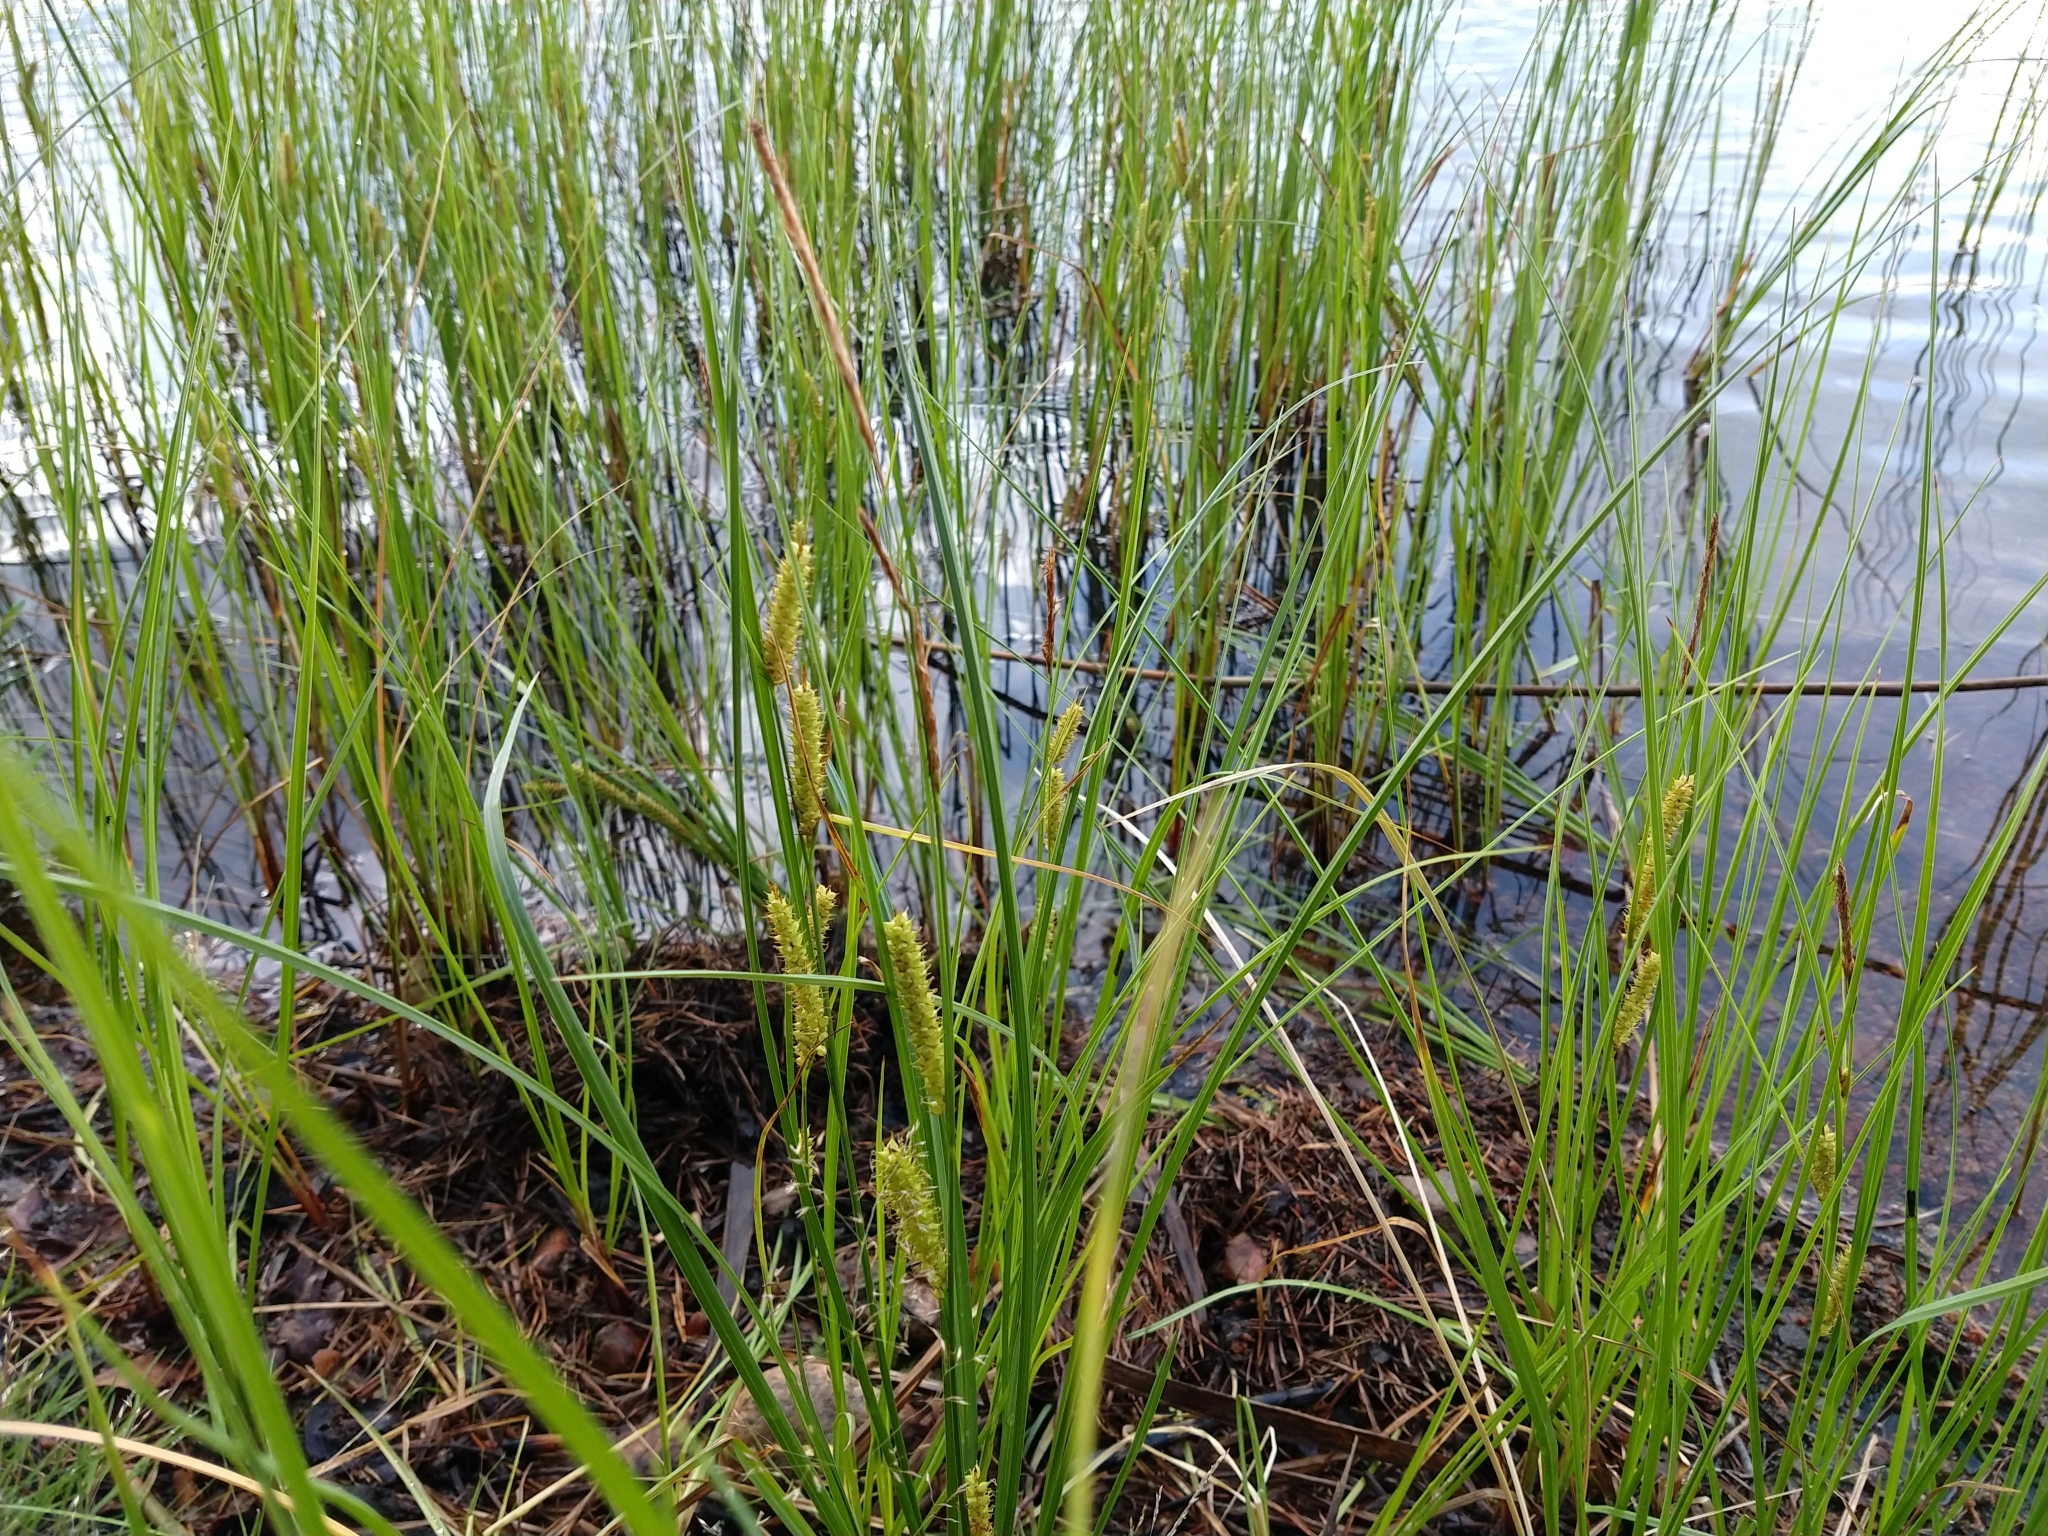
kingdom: Plantae
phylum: Tracheophyta
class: Liliopsida
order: Poales
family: Cyperaceae
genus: Carex
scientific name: Carex rostrata
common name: Bottle sedge
